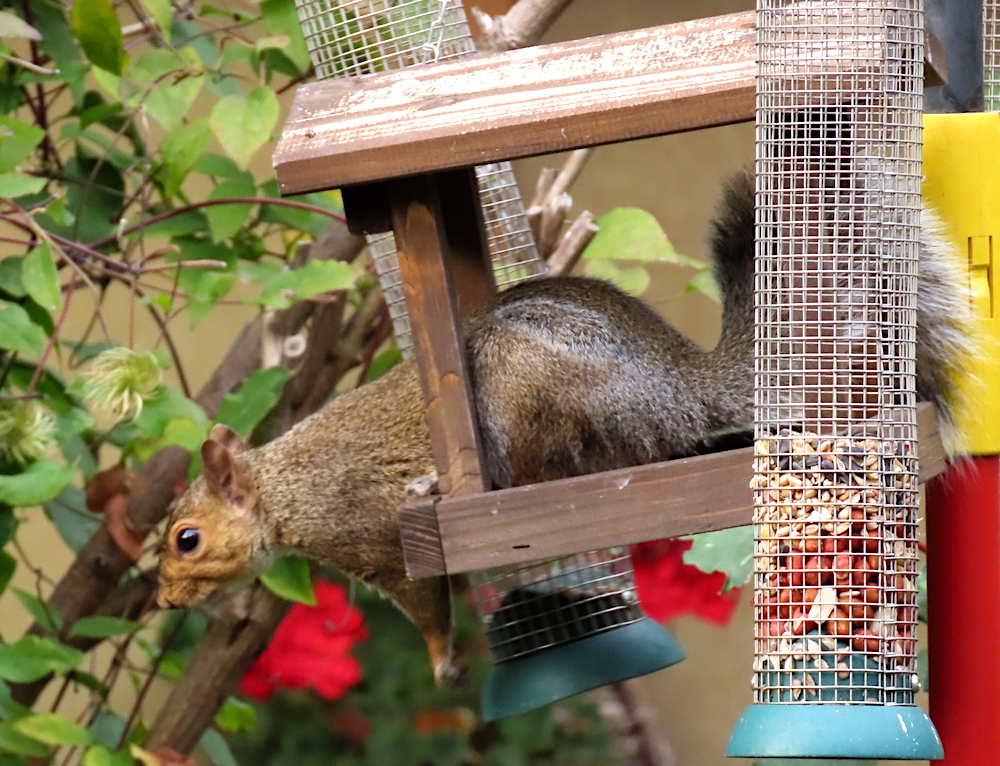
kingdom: Animalia
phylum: Chordata
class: Mammalia
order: Rodentia
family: Sciuridae
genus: Sciurus
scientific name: Sciurus carolinensis
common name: Eastern gray squirrel
